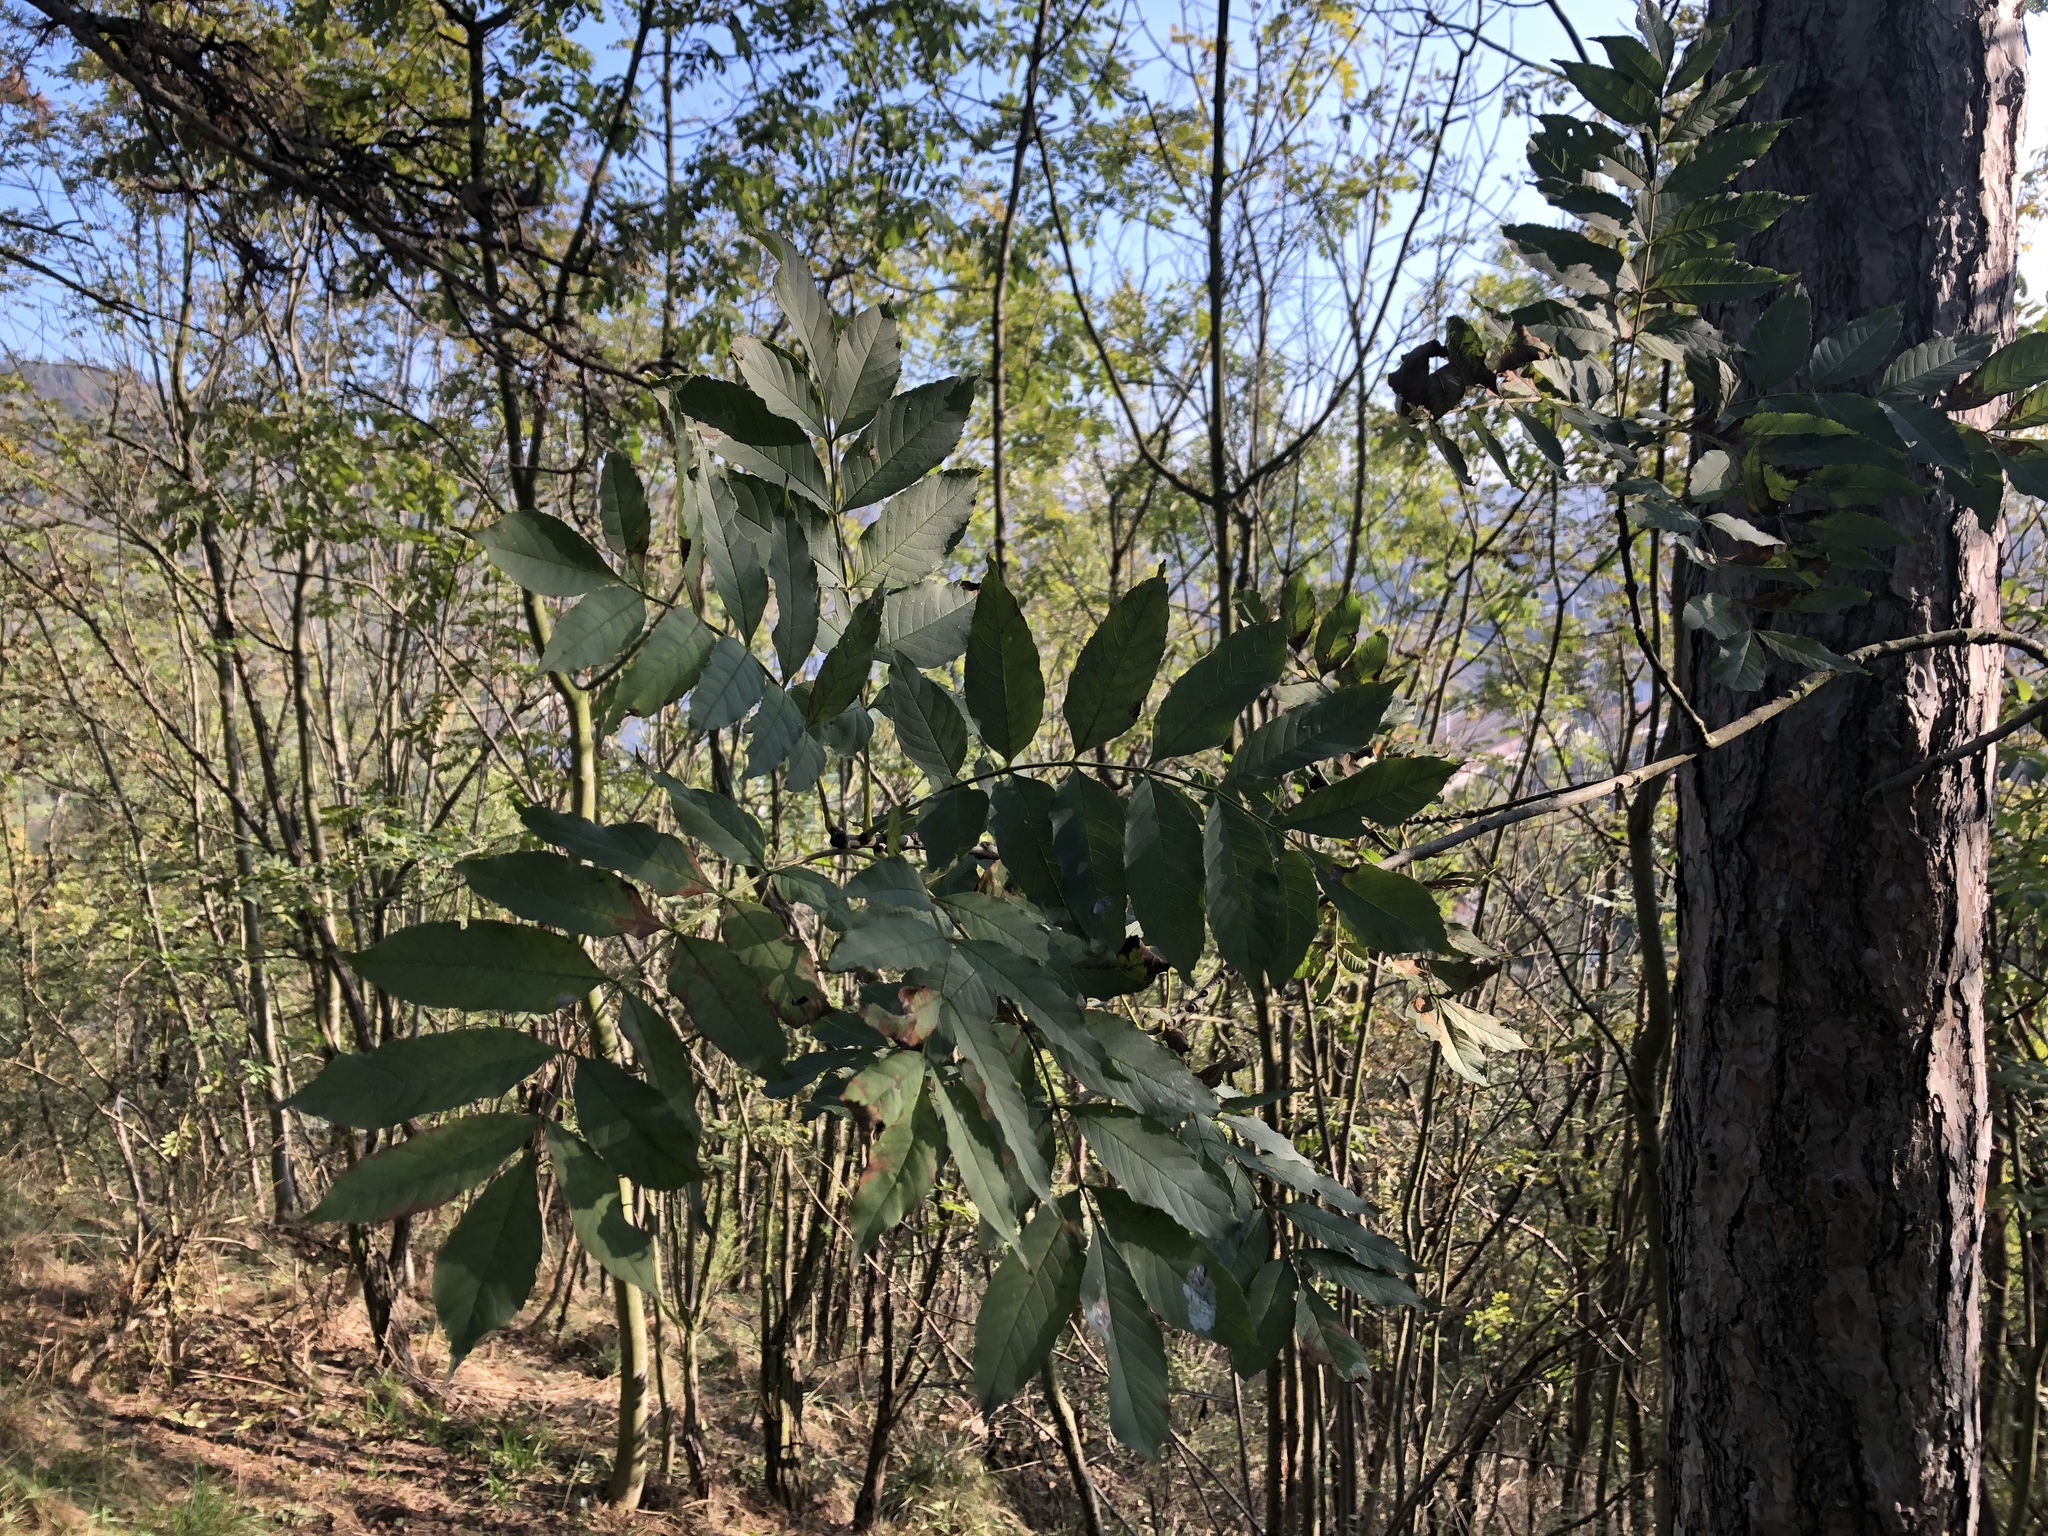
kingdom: Plantae
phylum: Tracheophyta
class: Magnoliopsida
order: Lamiales
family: Oleaceae
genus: Fraxinus
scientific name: Fraxinus excelsior
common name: European ash
